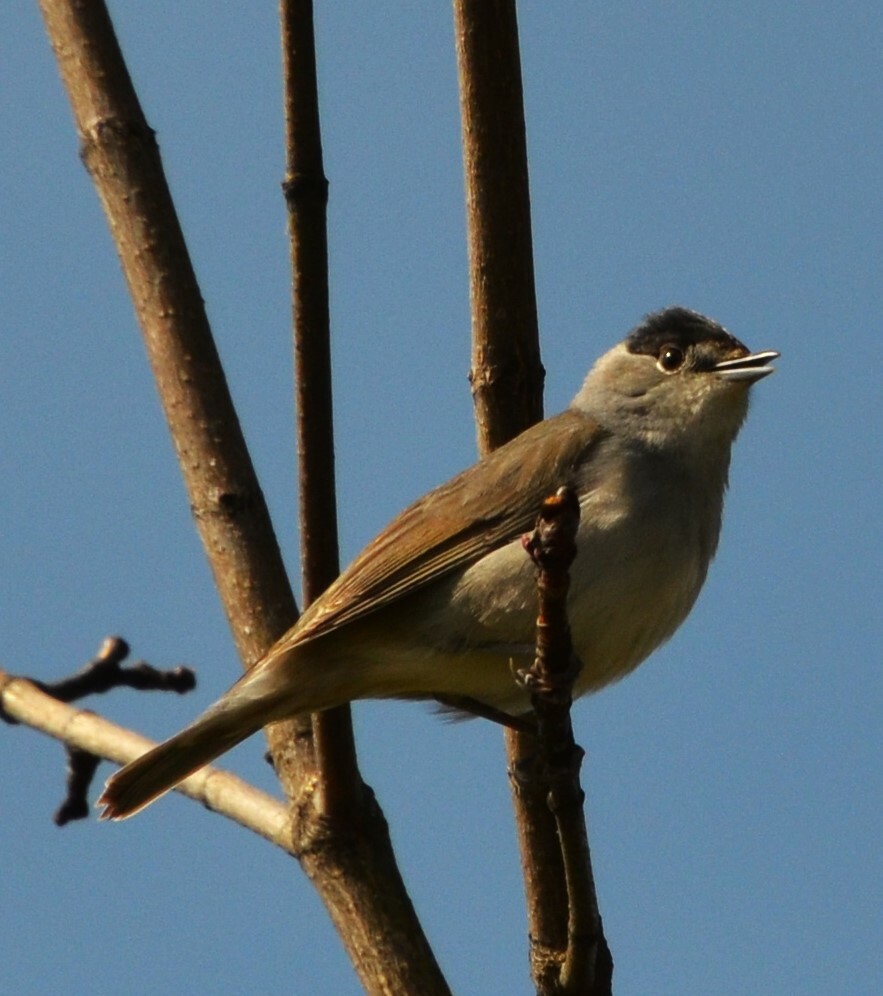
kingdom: Animalia
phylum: Chordata
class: Aves
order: Passeriformes
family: Sylviidae
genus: Sylvia
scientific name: Sylvia atricapilla
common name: Eurasian blackcap
